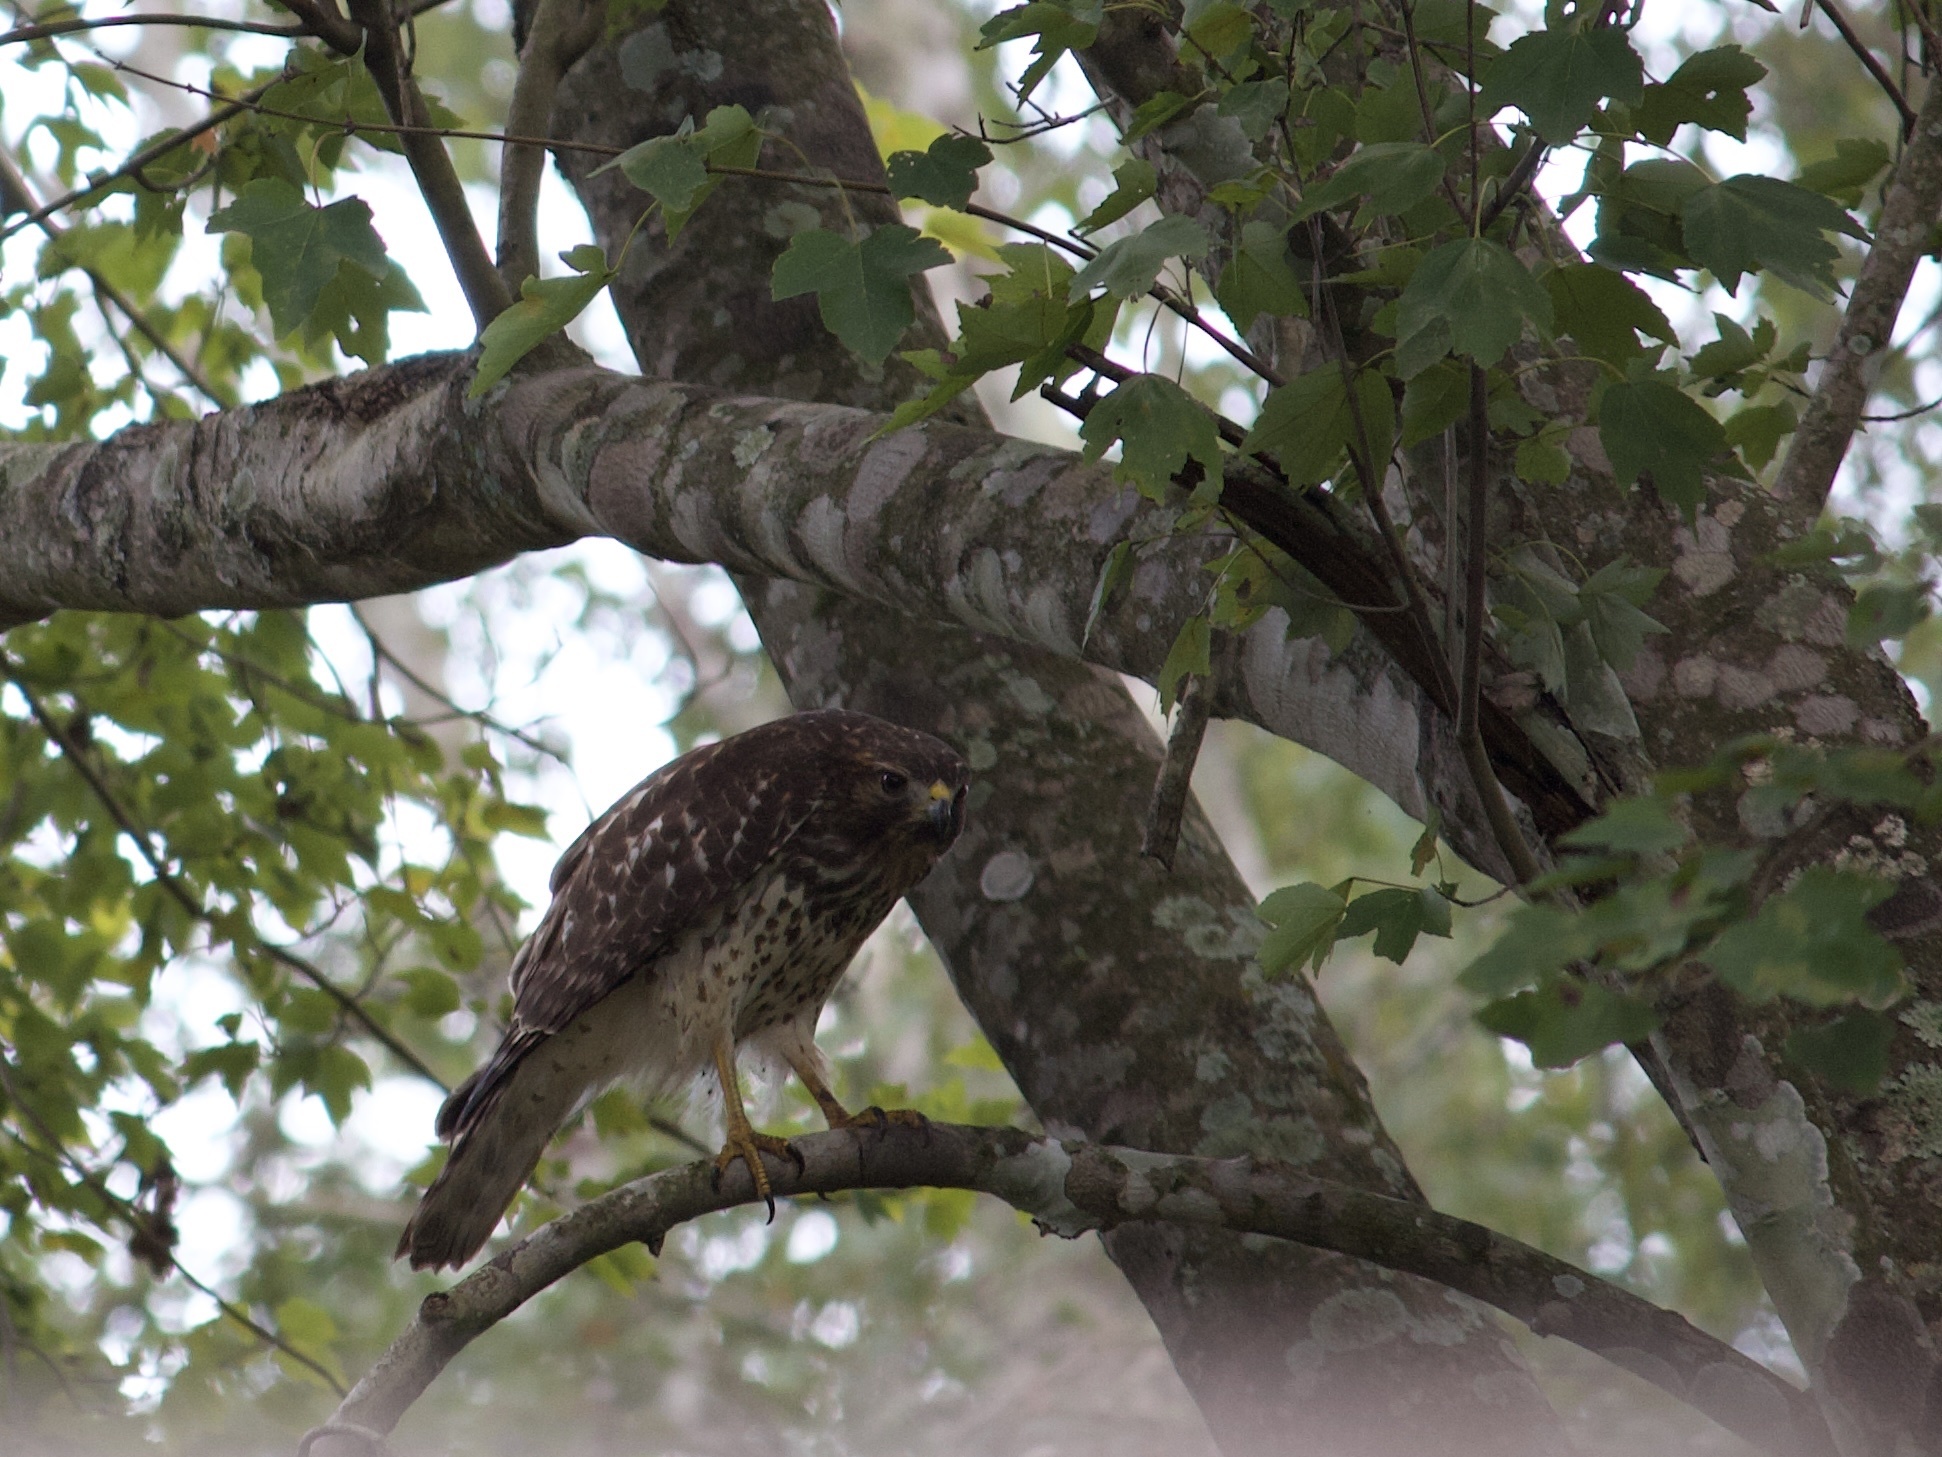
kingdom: Animalia
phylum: Chordata
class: Aves
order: Accipitriformes
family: Accipitridae
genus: Buteo
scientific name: Buteo lineatus
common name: Red-shouldered hawk
